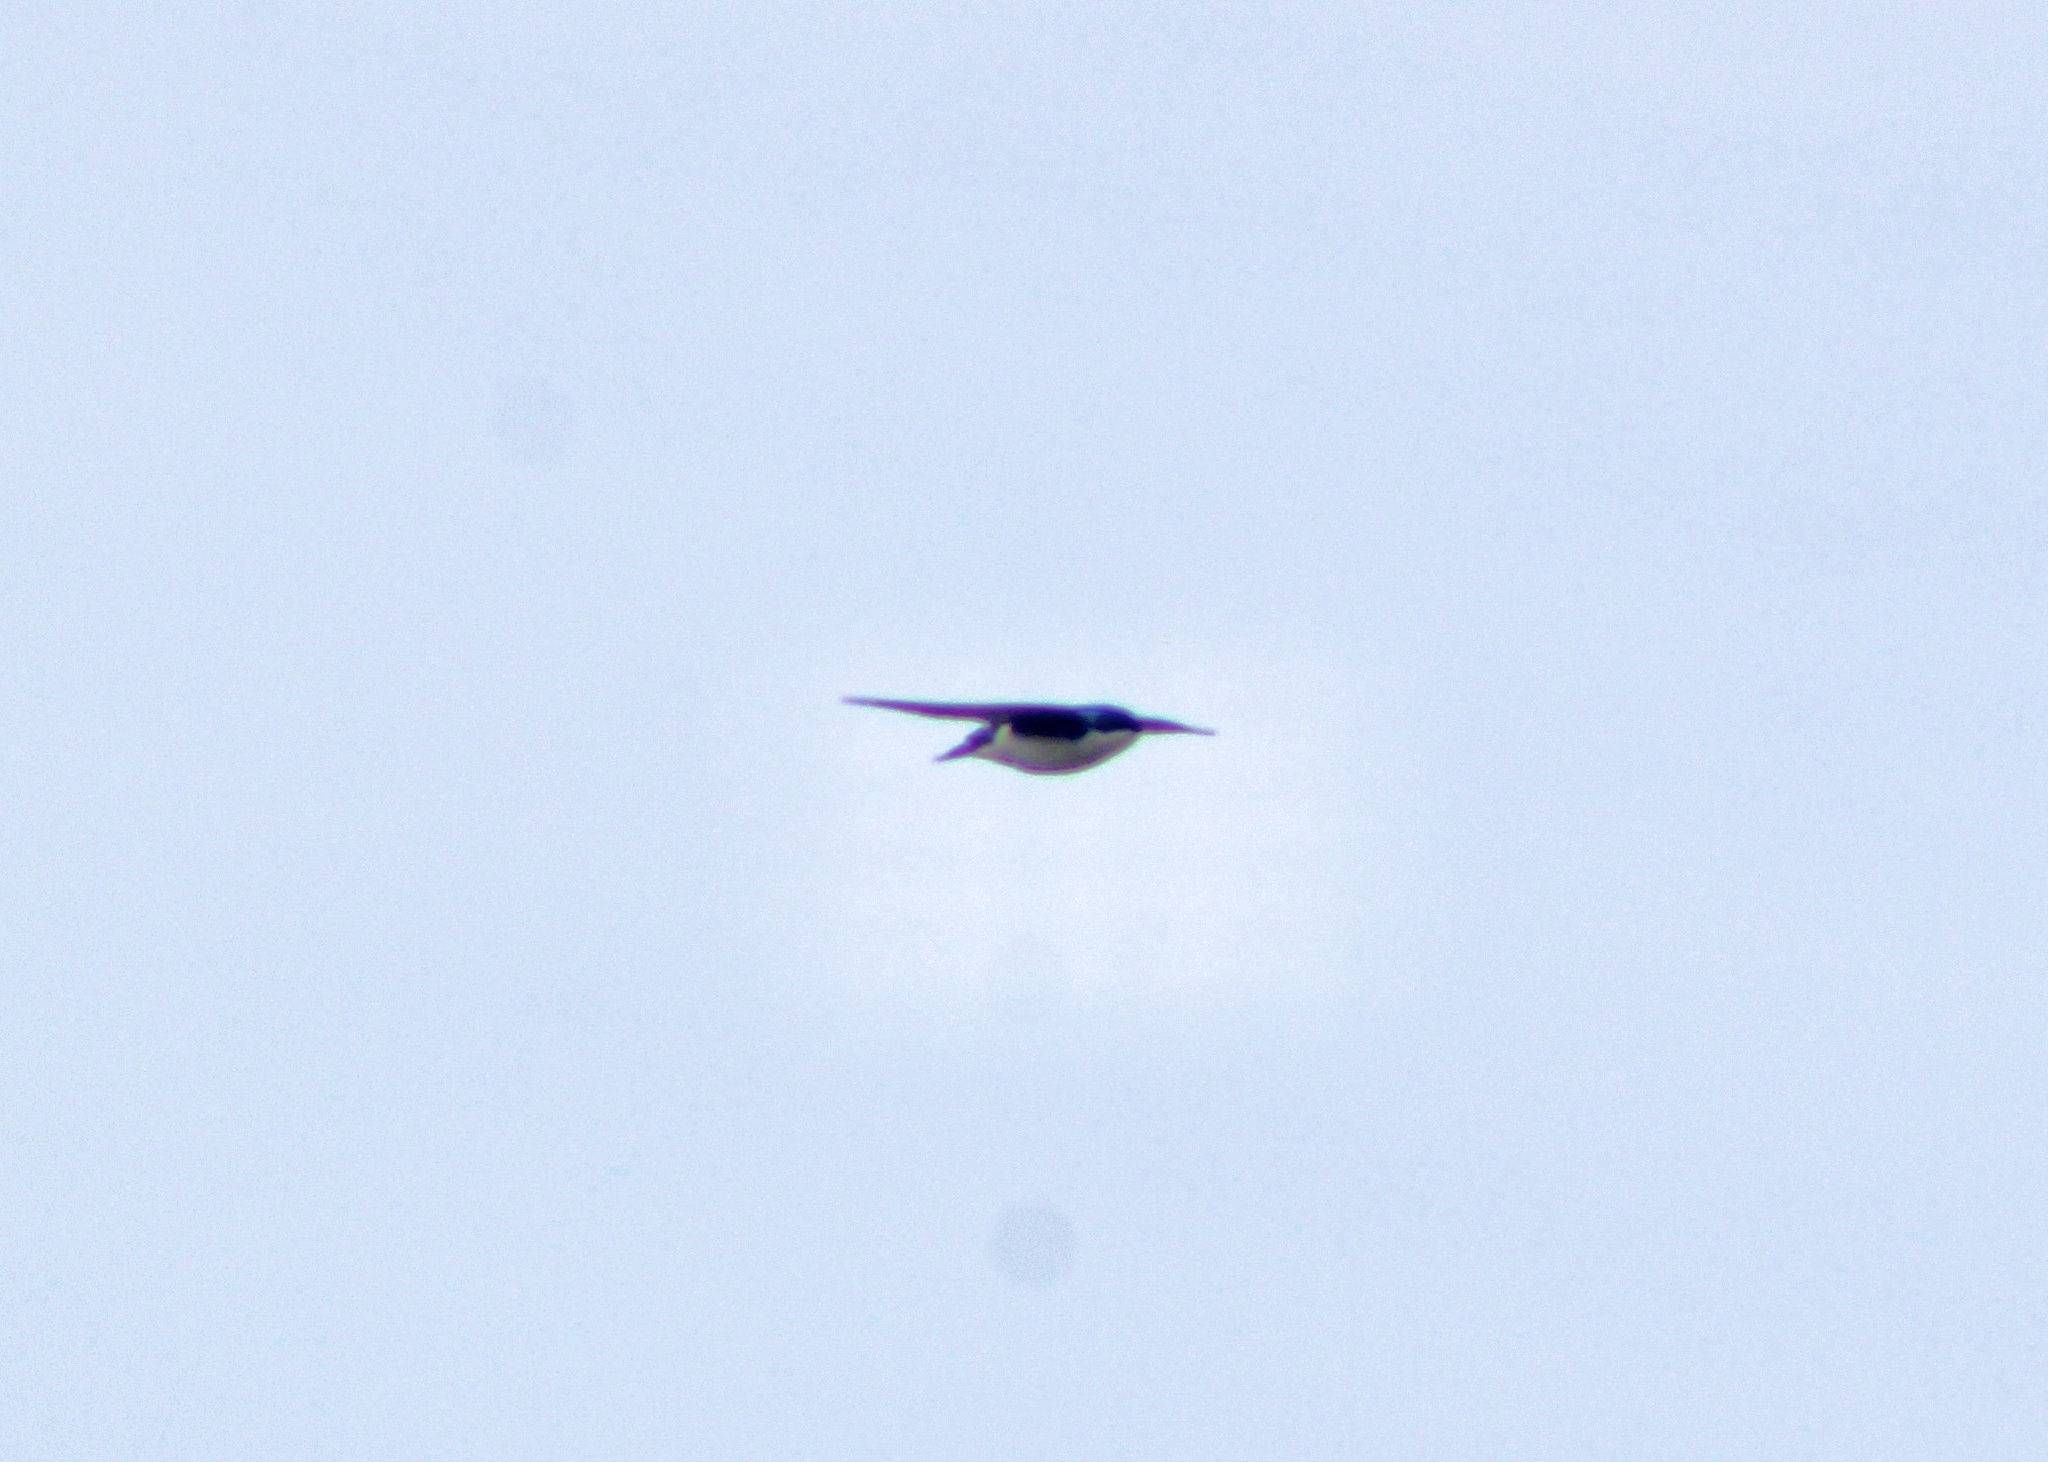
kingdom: Animalia
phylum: Chordata
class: Aves
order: Passeriformes
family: Hirundinidae
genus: Tachycineta
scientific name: Tachycineta bicolor
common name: Tree swallow
